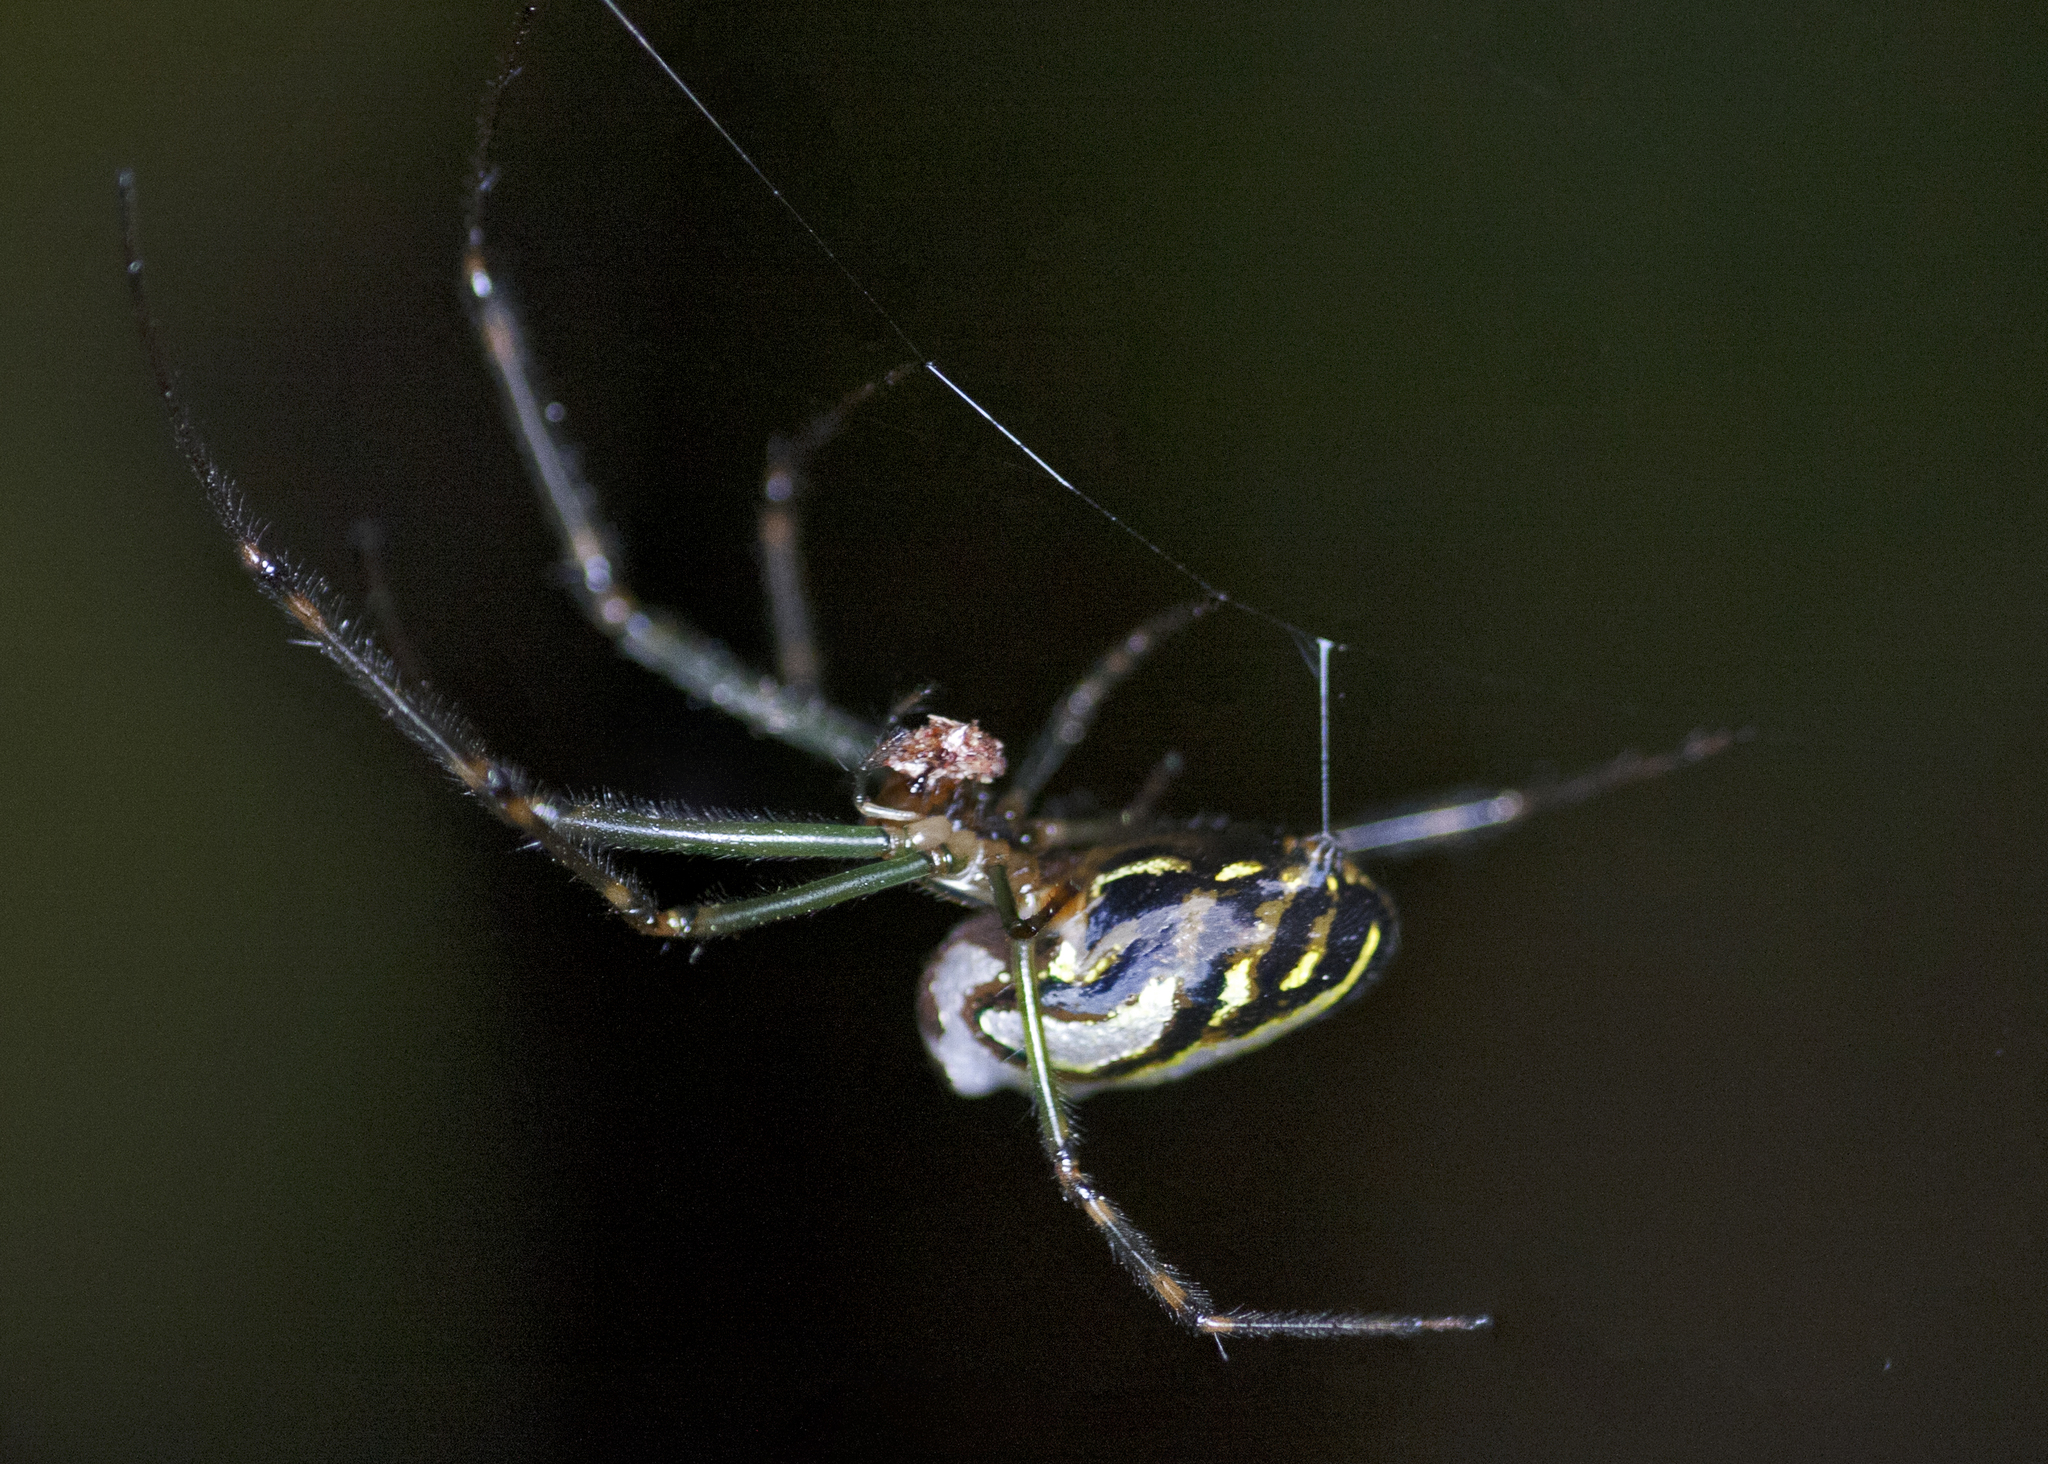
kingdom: Animalia
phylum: Arthropoda
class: Arachnida
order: Araneae
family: Tetragnathidae
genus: Leucauge
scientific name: Leucauge dromedaria
